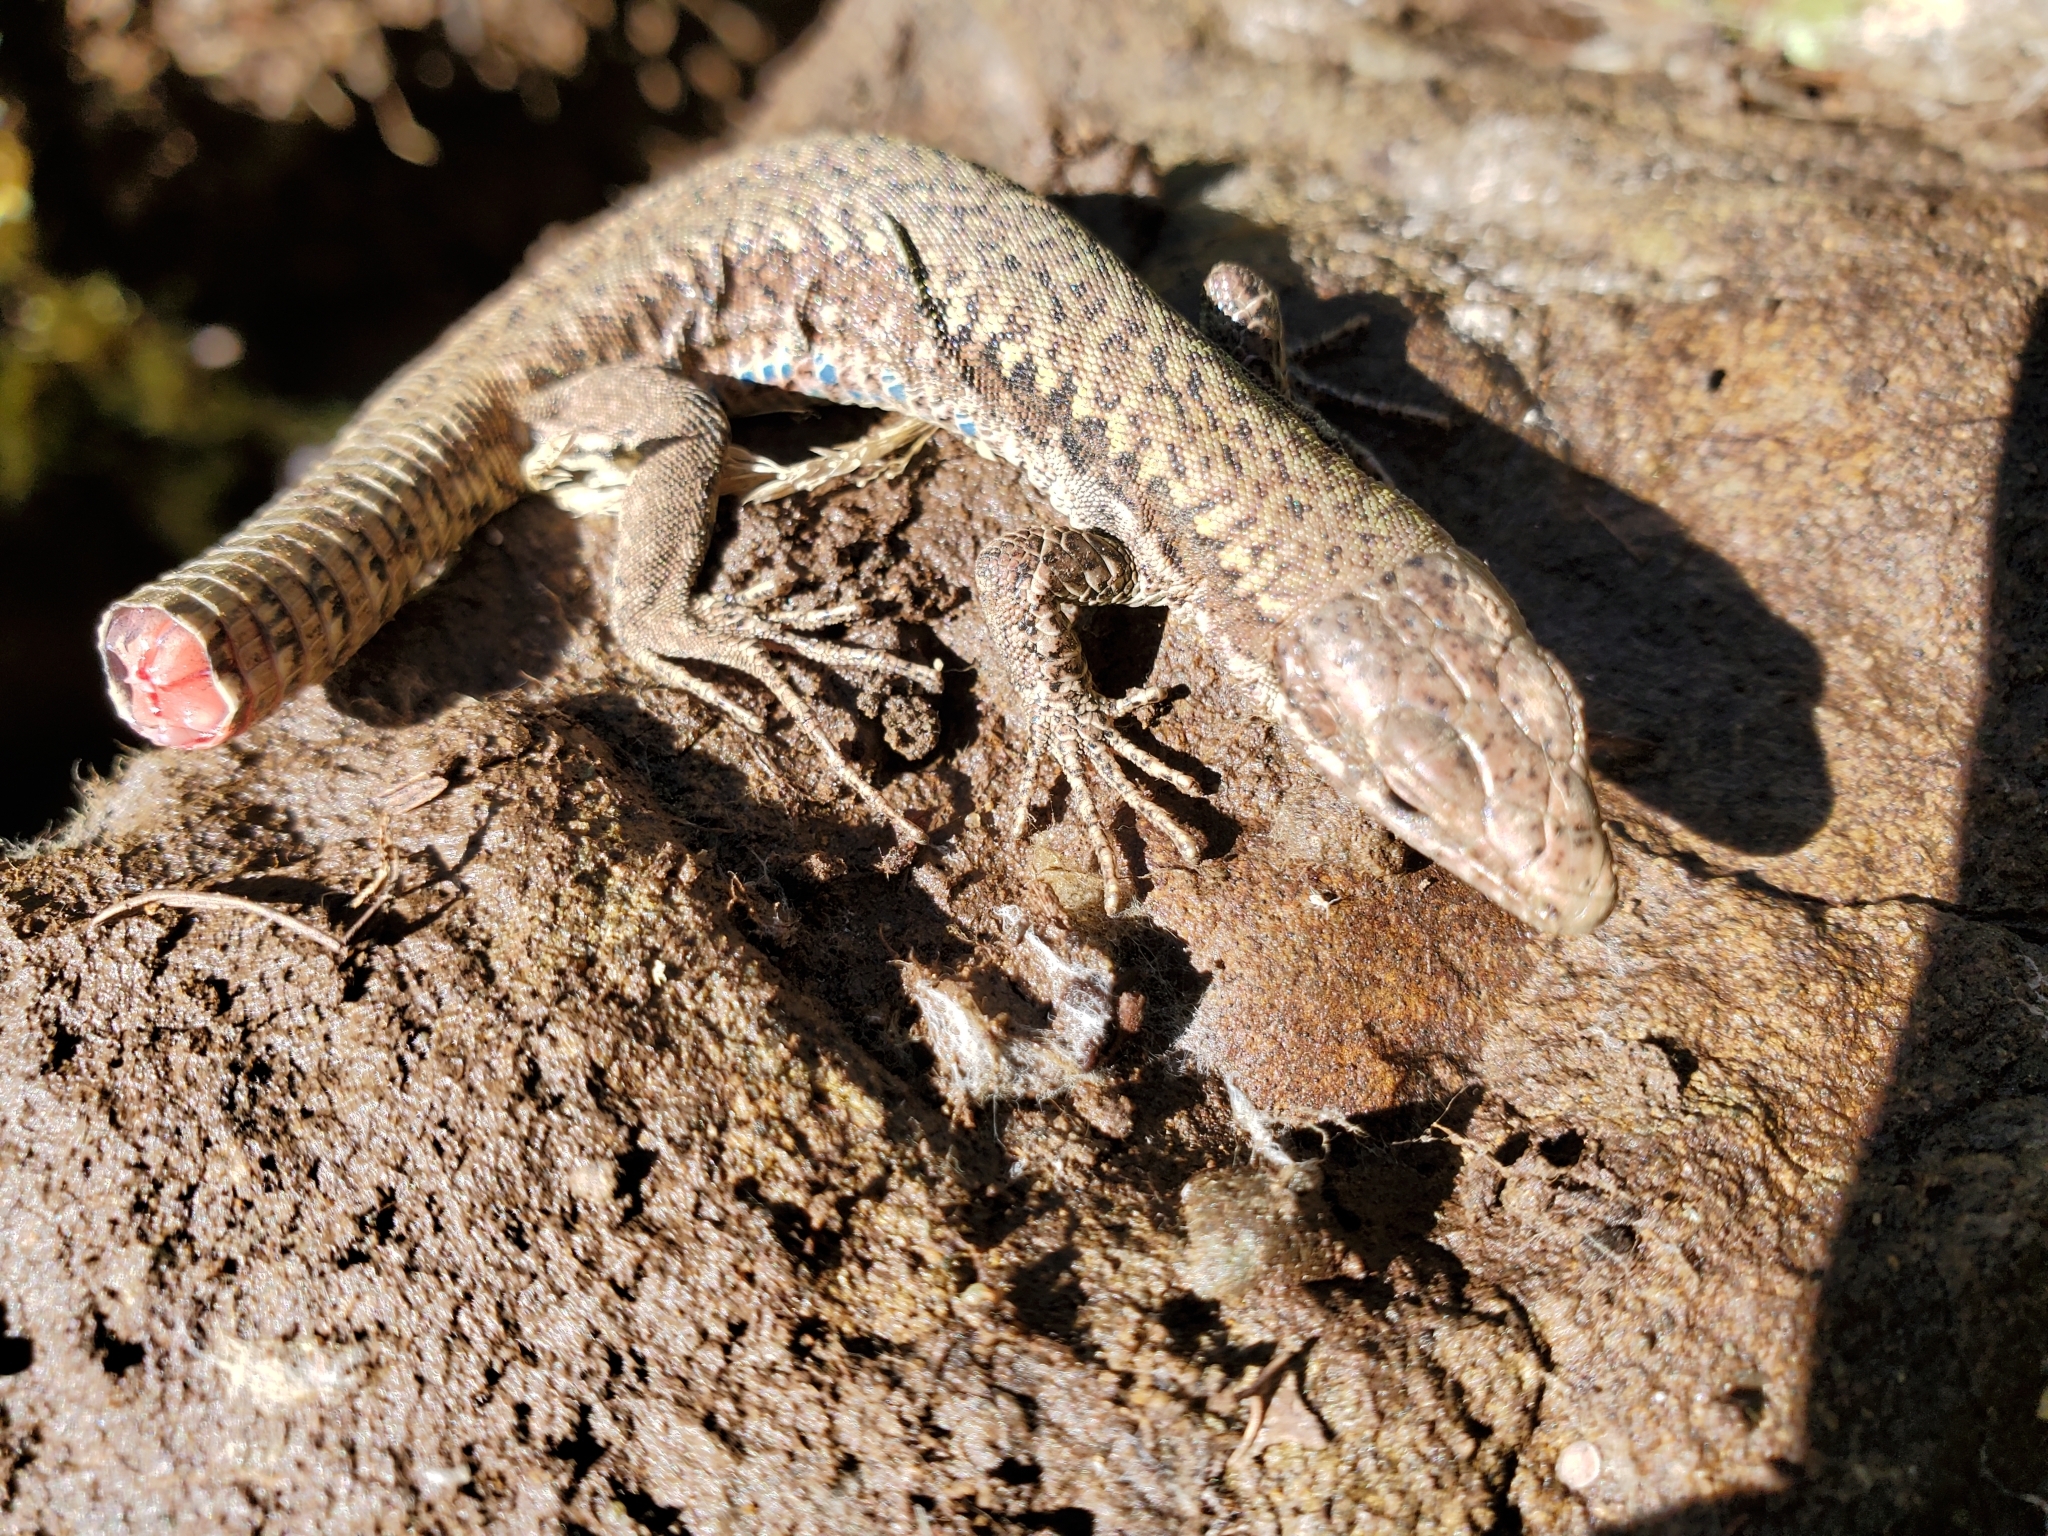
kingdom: Animalia
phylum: Chordata
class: Squamata
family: Lacertidae
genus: Podarcis
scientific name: Podarcis muralis
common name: Common wall lizard
